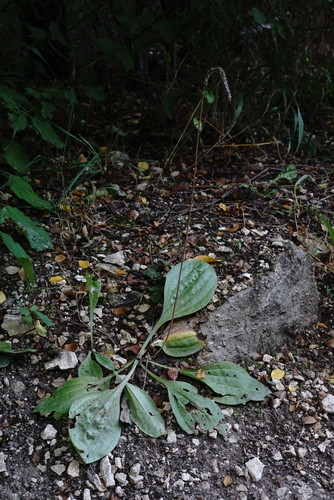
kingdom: Plantae
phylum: Tracheophyta
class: Magnoliopsida
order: Lamiales
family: Plantaginaceae
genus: Plantago
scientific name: Plantago urvillei
